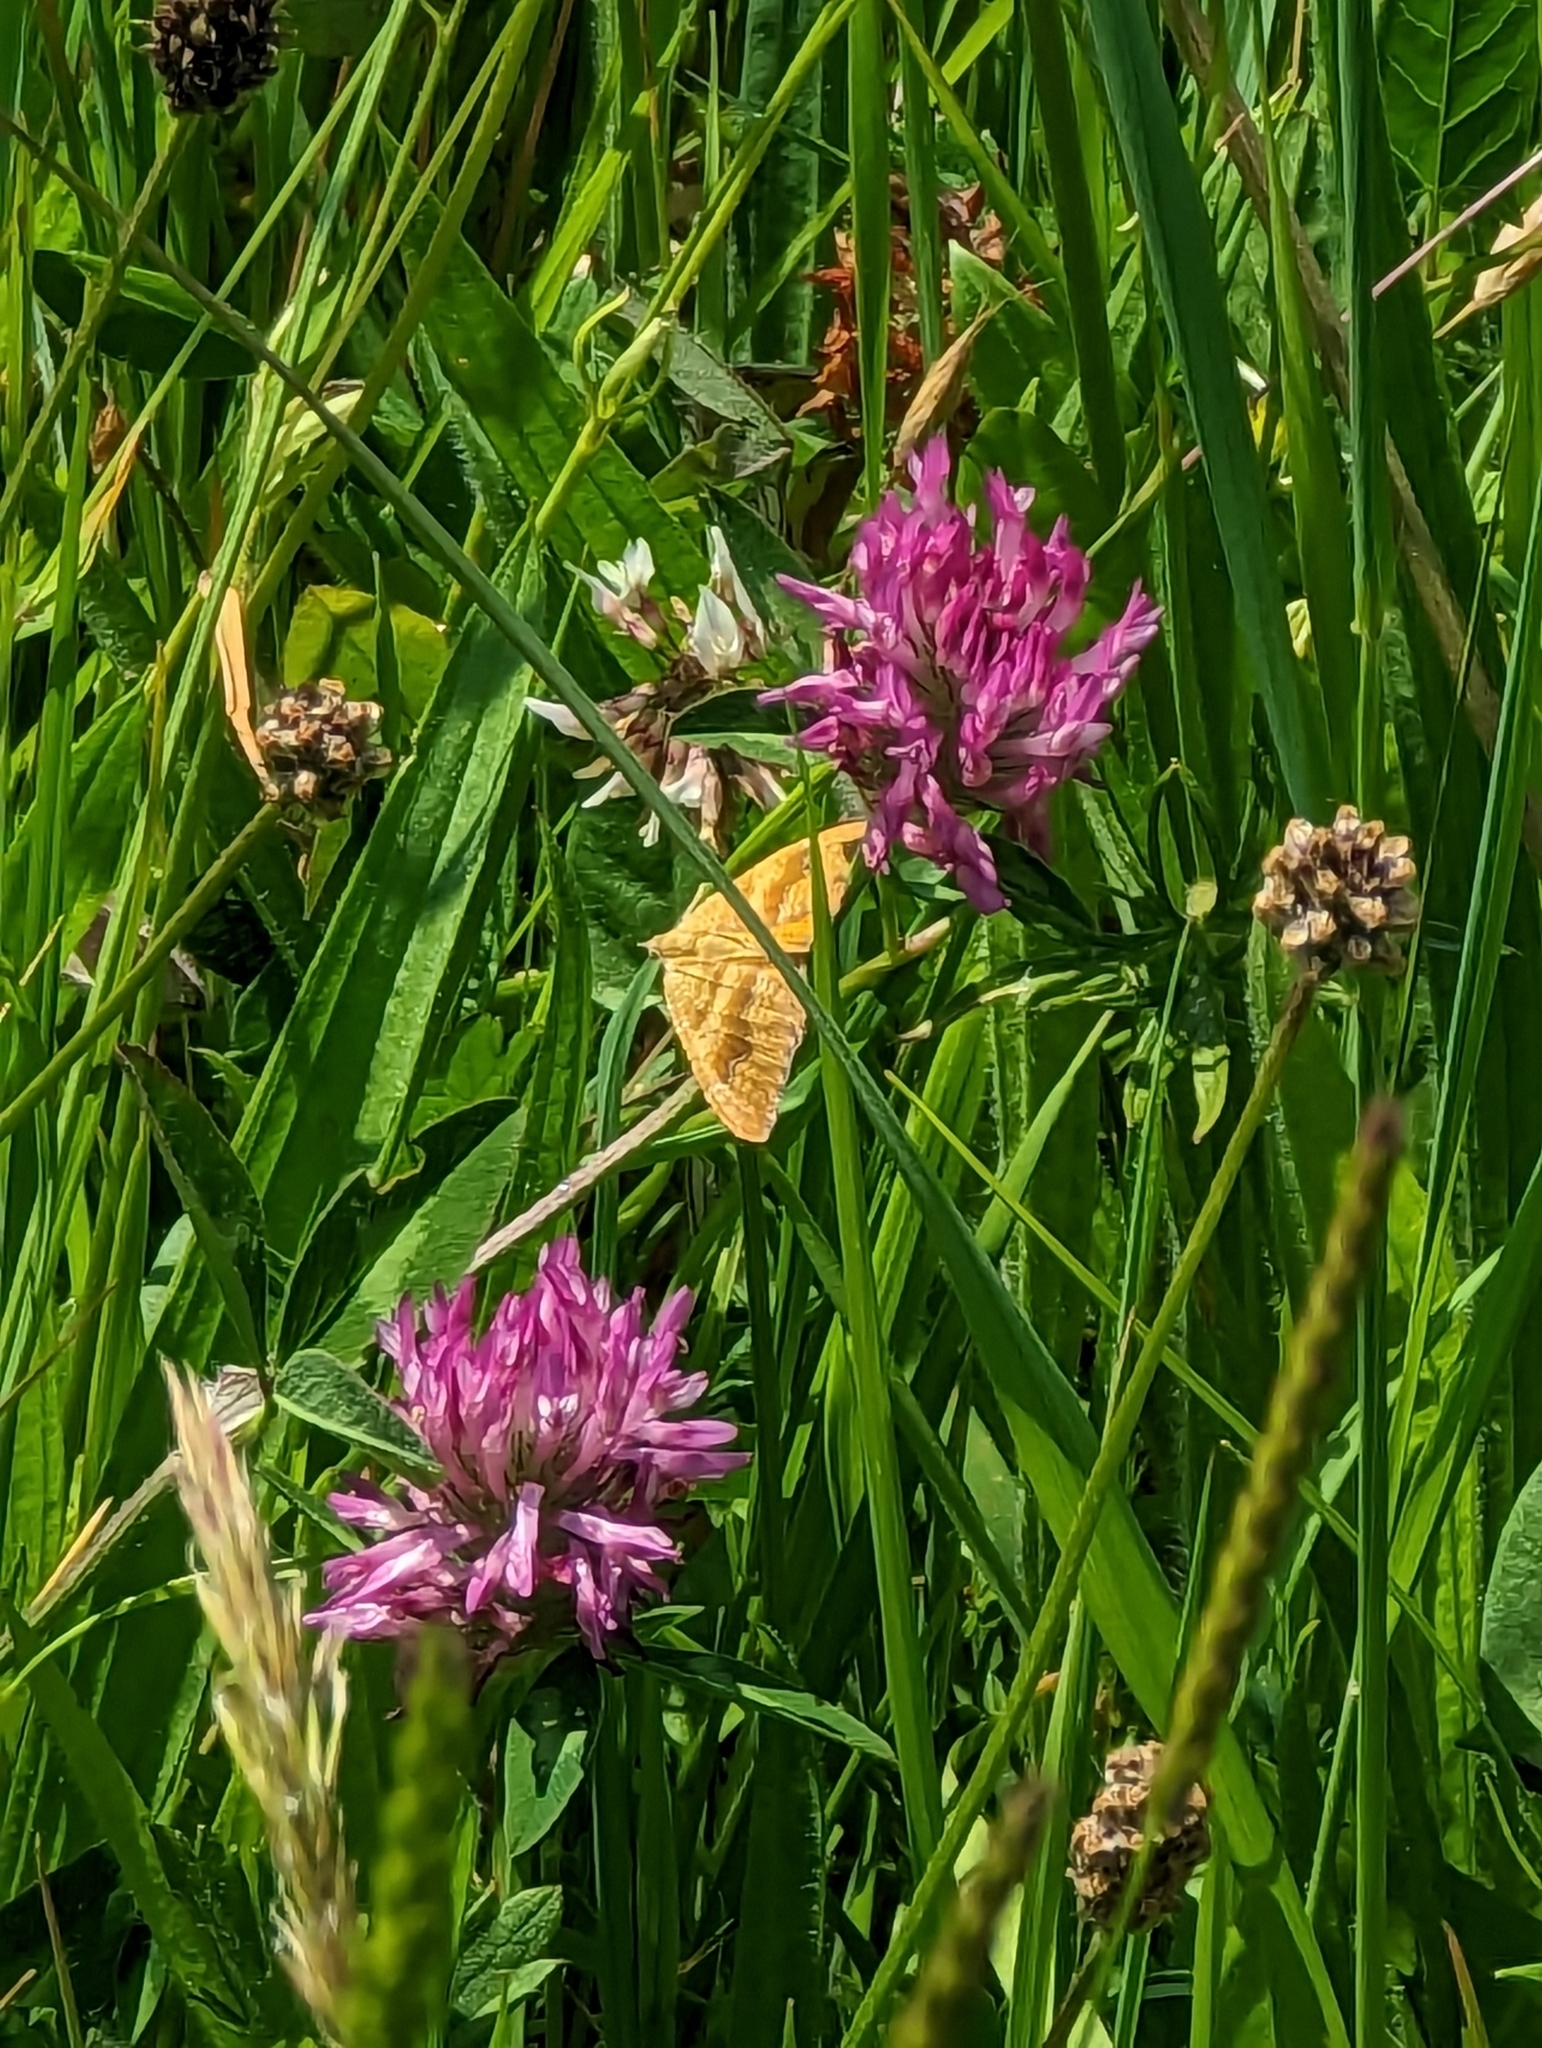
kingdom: Animalia
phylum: Arthropoda
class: Insecta
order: Lepidoptera
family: Geometridae
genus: Camptogramma
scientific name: Camptogramma bilineata
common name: Yellow shell
